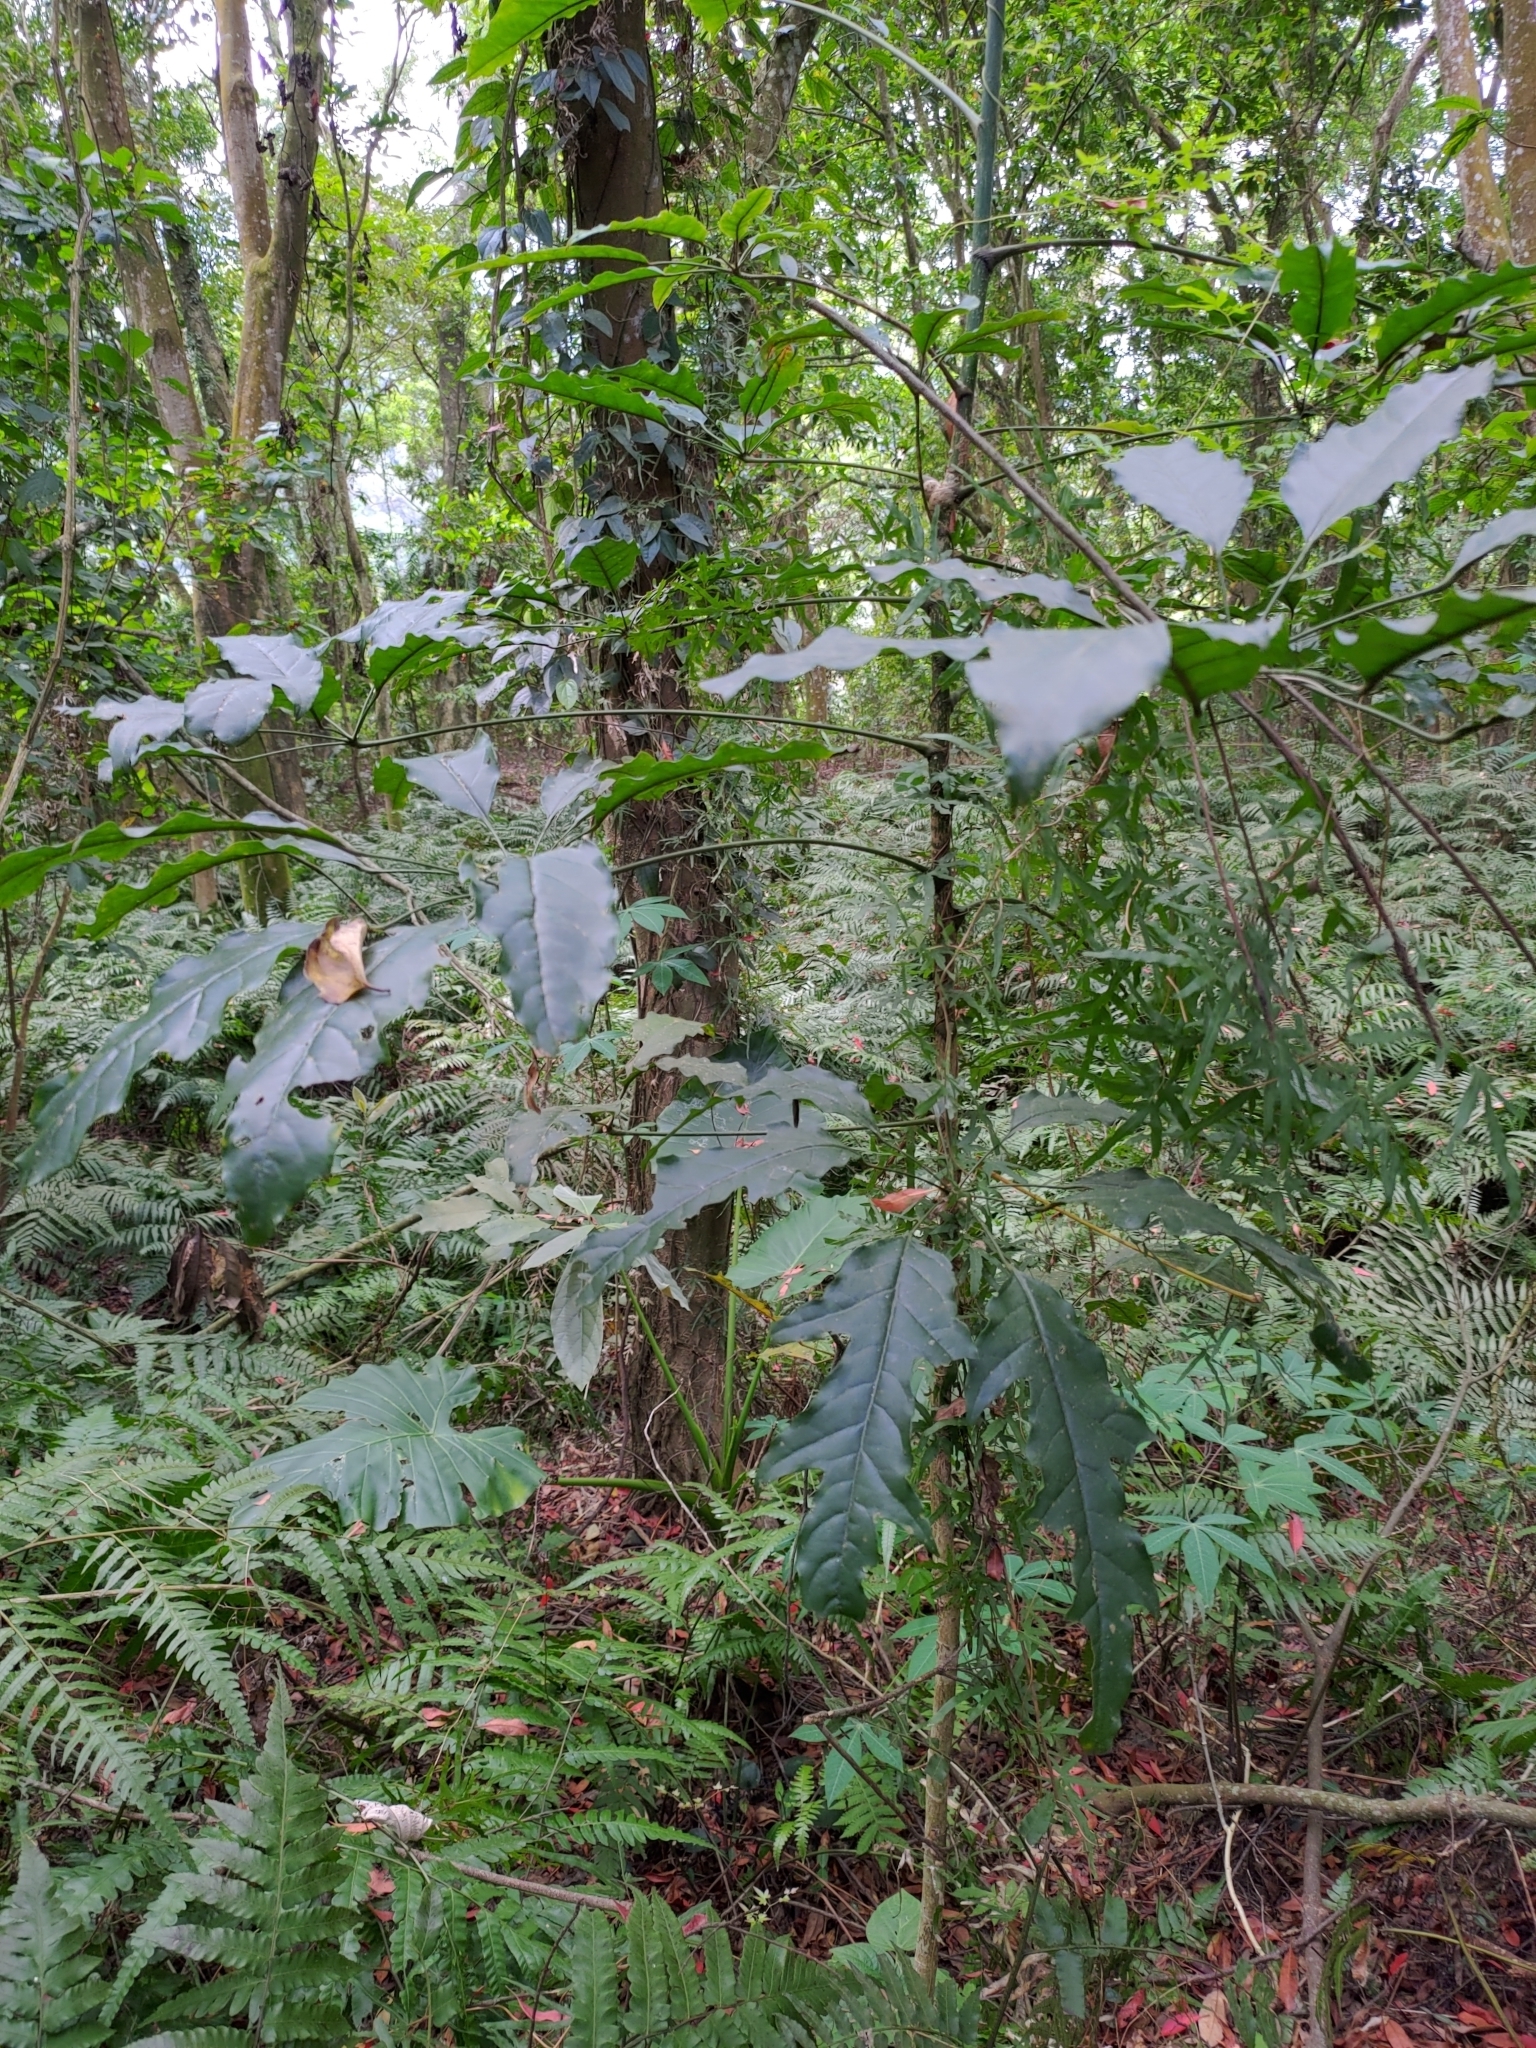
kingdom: Plantae
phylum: Tracheophyta
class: Magnoliopsida
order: Apiales
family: Araliaceae
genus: Heptapleurum
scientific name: Heptapleurum heptaphyllum
